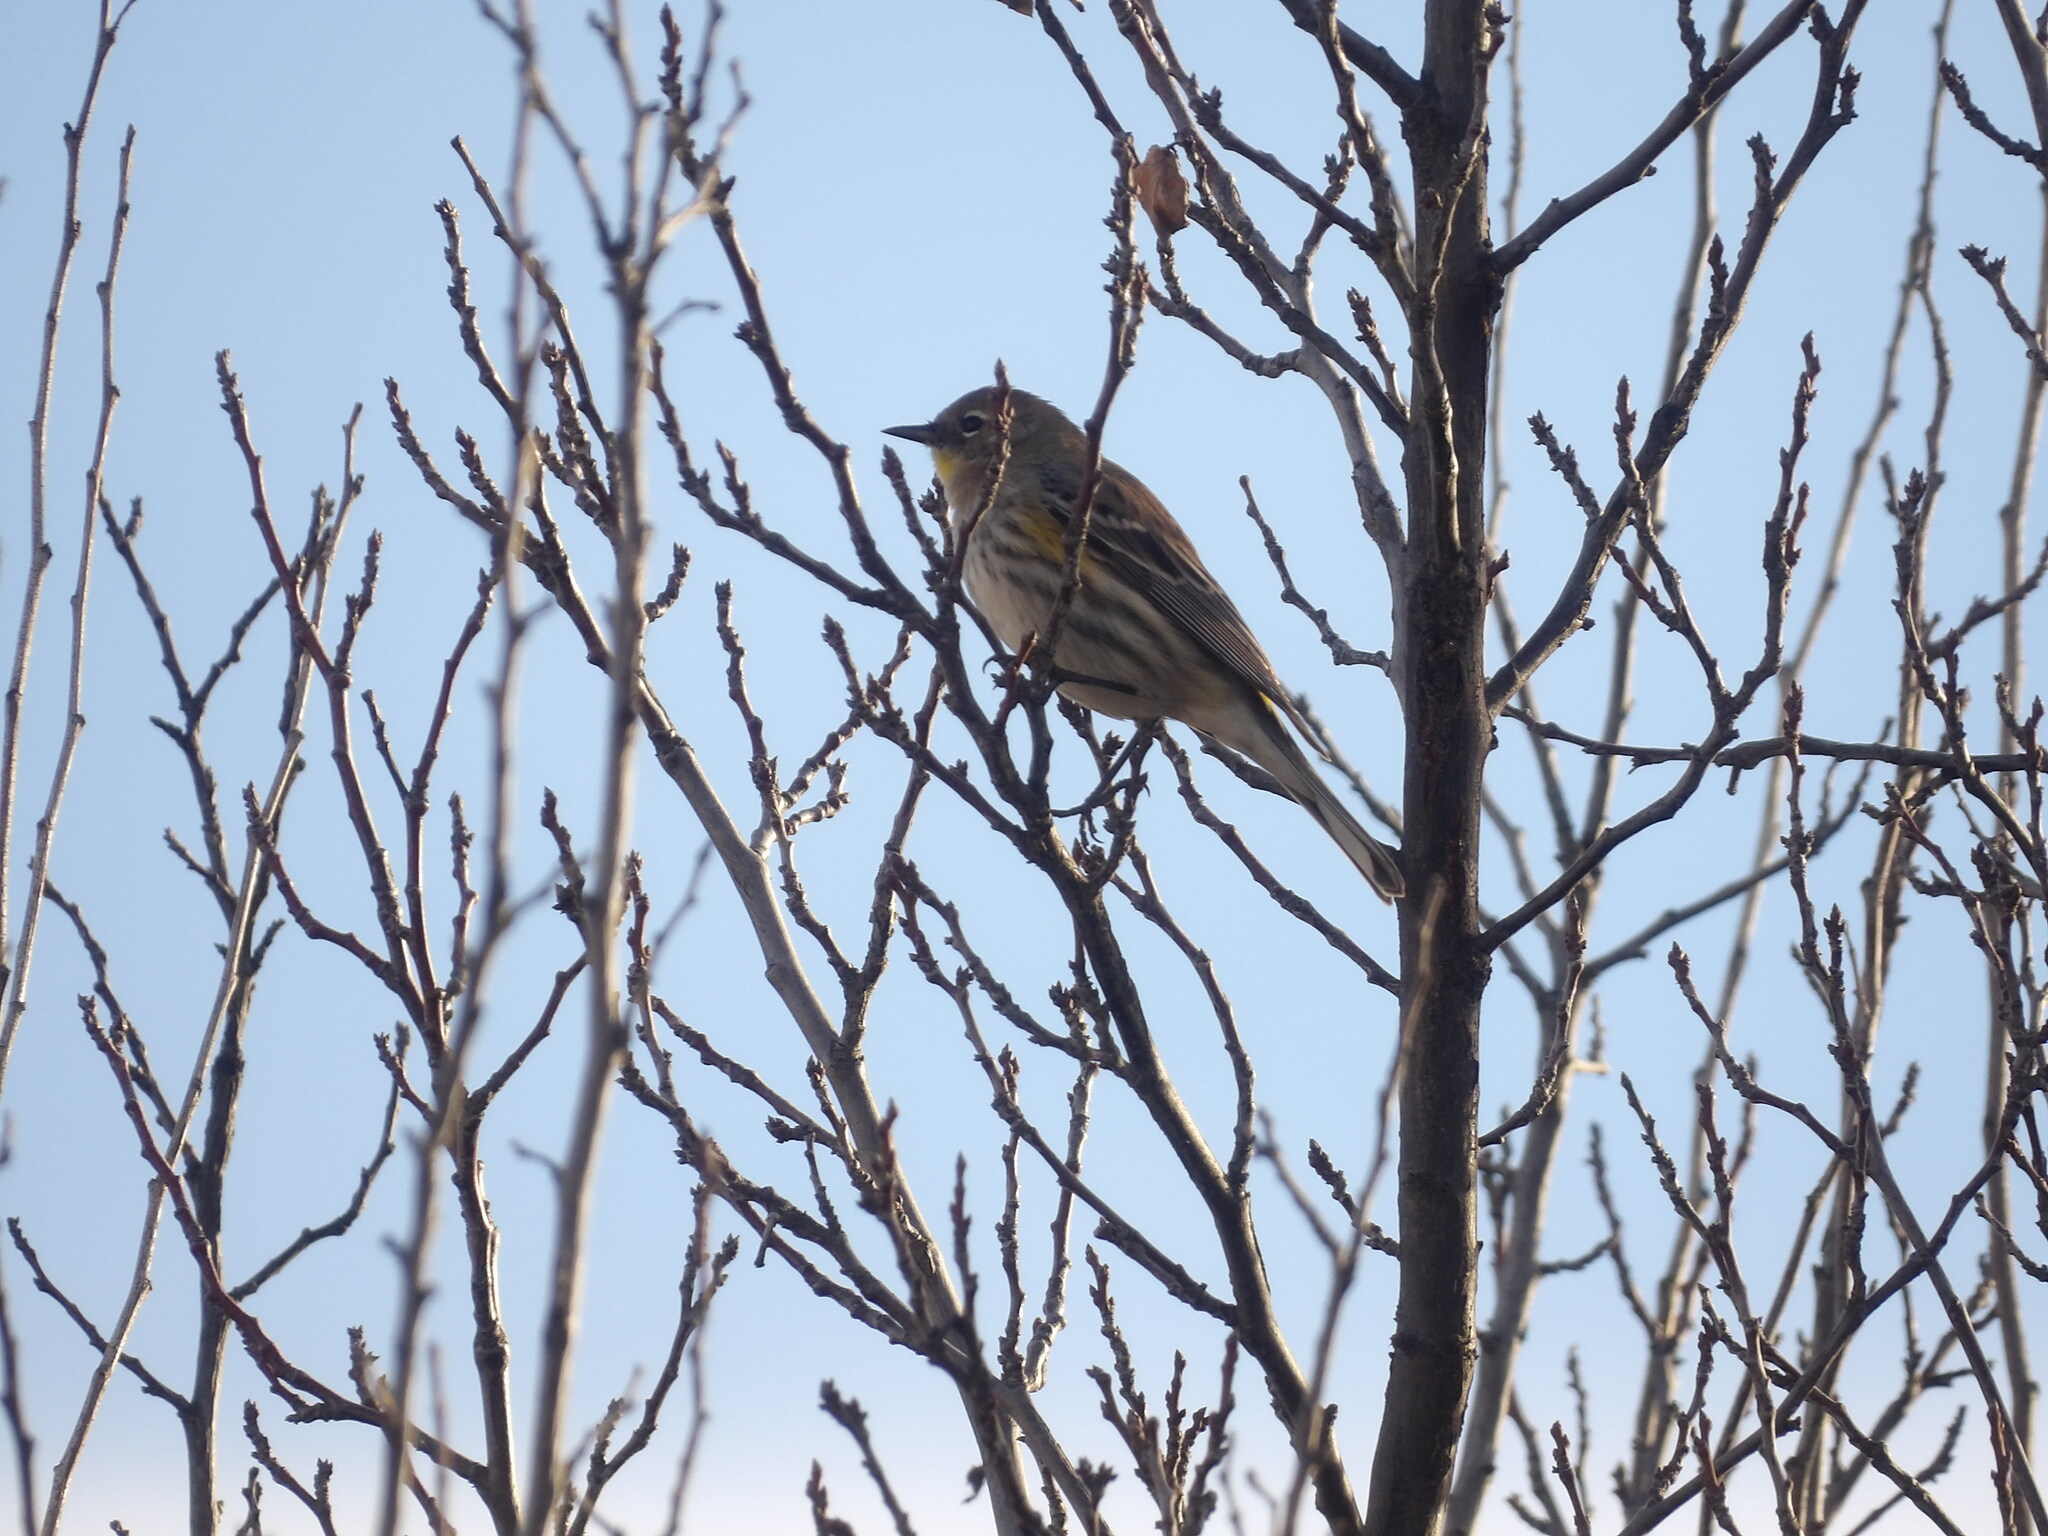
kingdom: Animalia
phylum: Chordata
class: Aves
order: Passeriformes
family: Parulidae
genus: Setophaga
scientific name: Setophaga coronata
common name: Myrtle warbler
